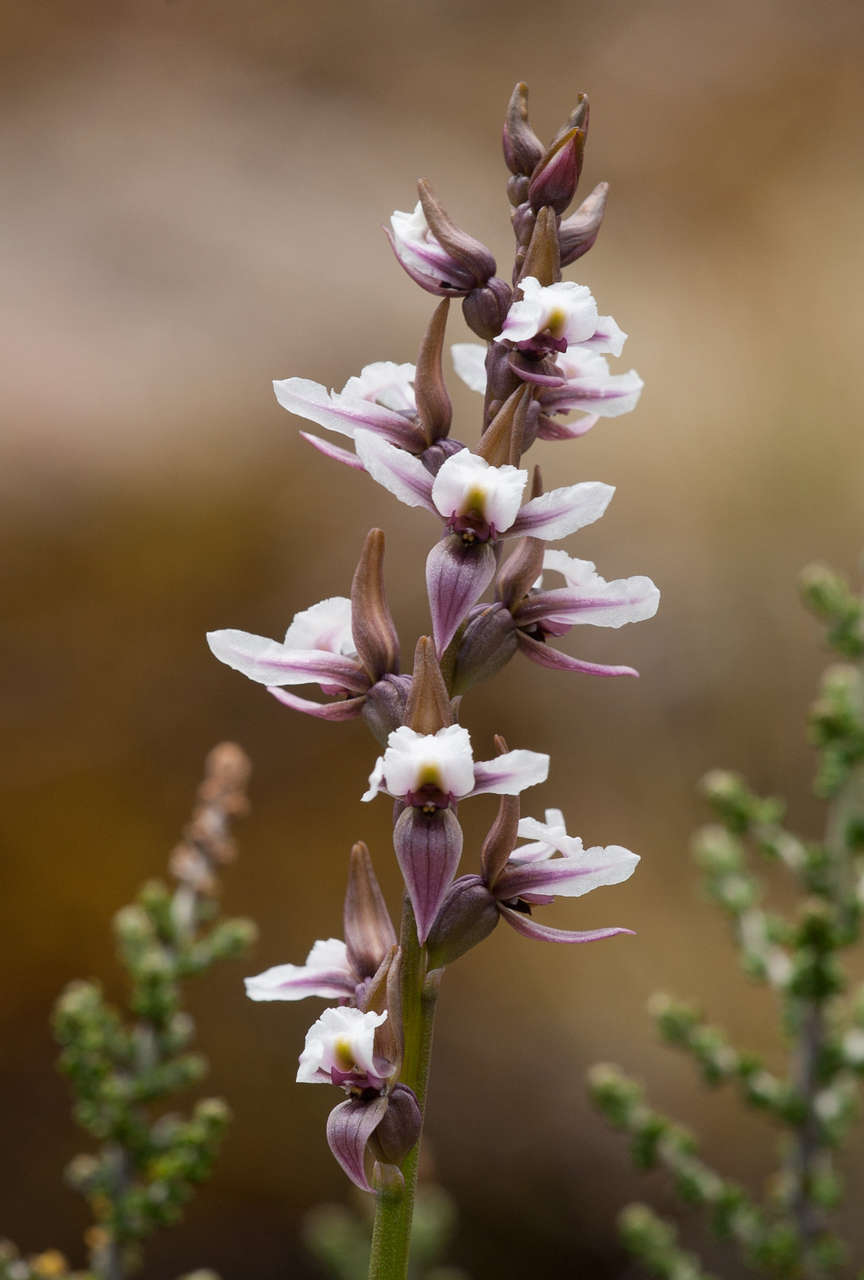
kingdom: Plantae
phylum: Tracheophyta
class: Liliopsida
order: Asparagales
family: Orchidaceae
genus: Prasophyllum
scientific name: Prasophyllum suttonii
